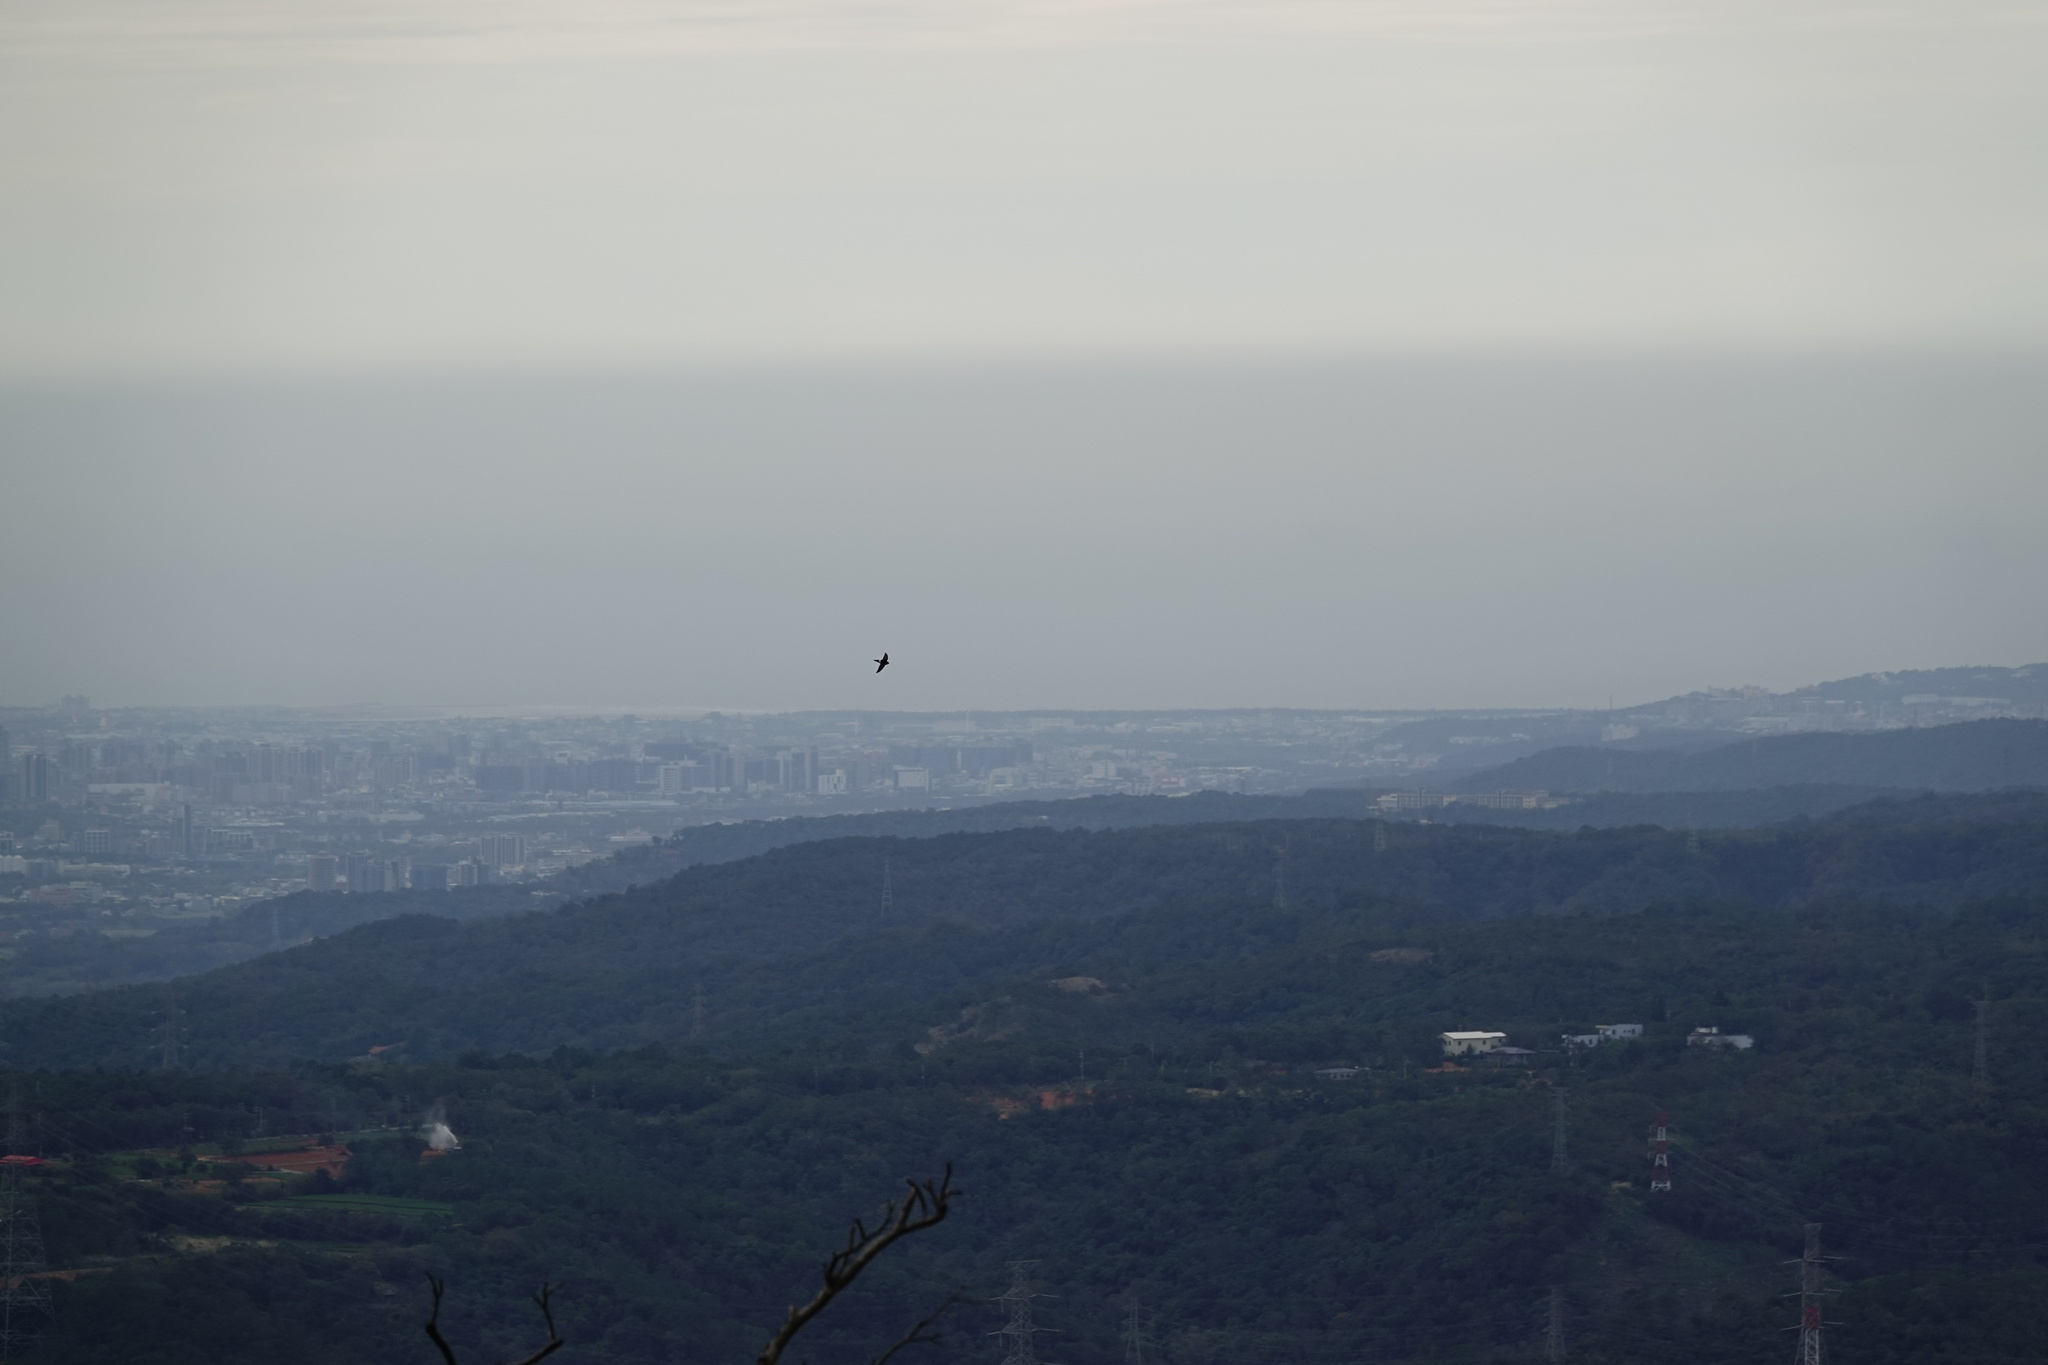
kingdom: Animalia
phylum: Chordata
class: Aves
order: Apodiformes
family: Apodidae
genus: Apus
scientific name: Apus nipalensis
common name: House swift
